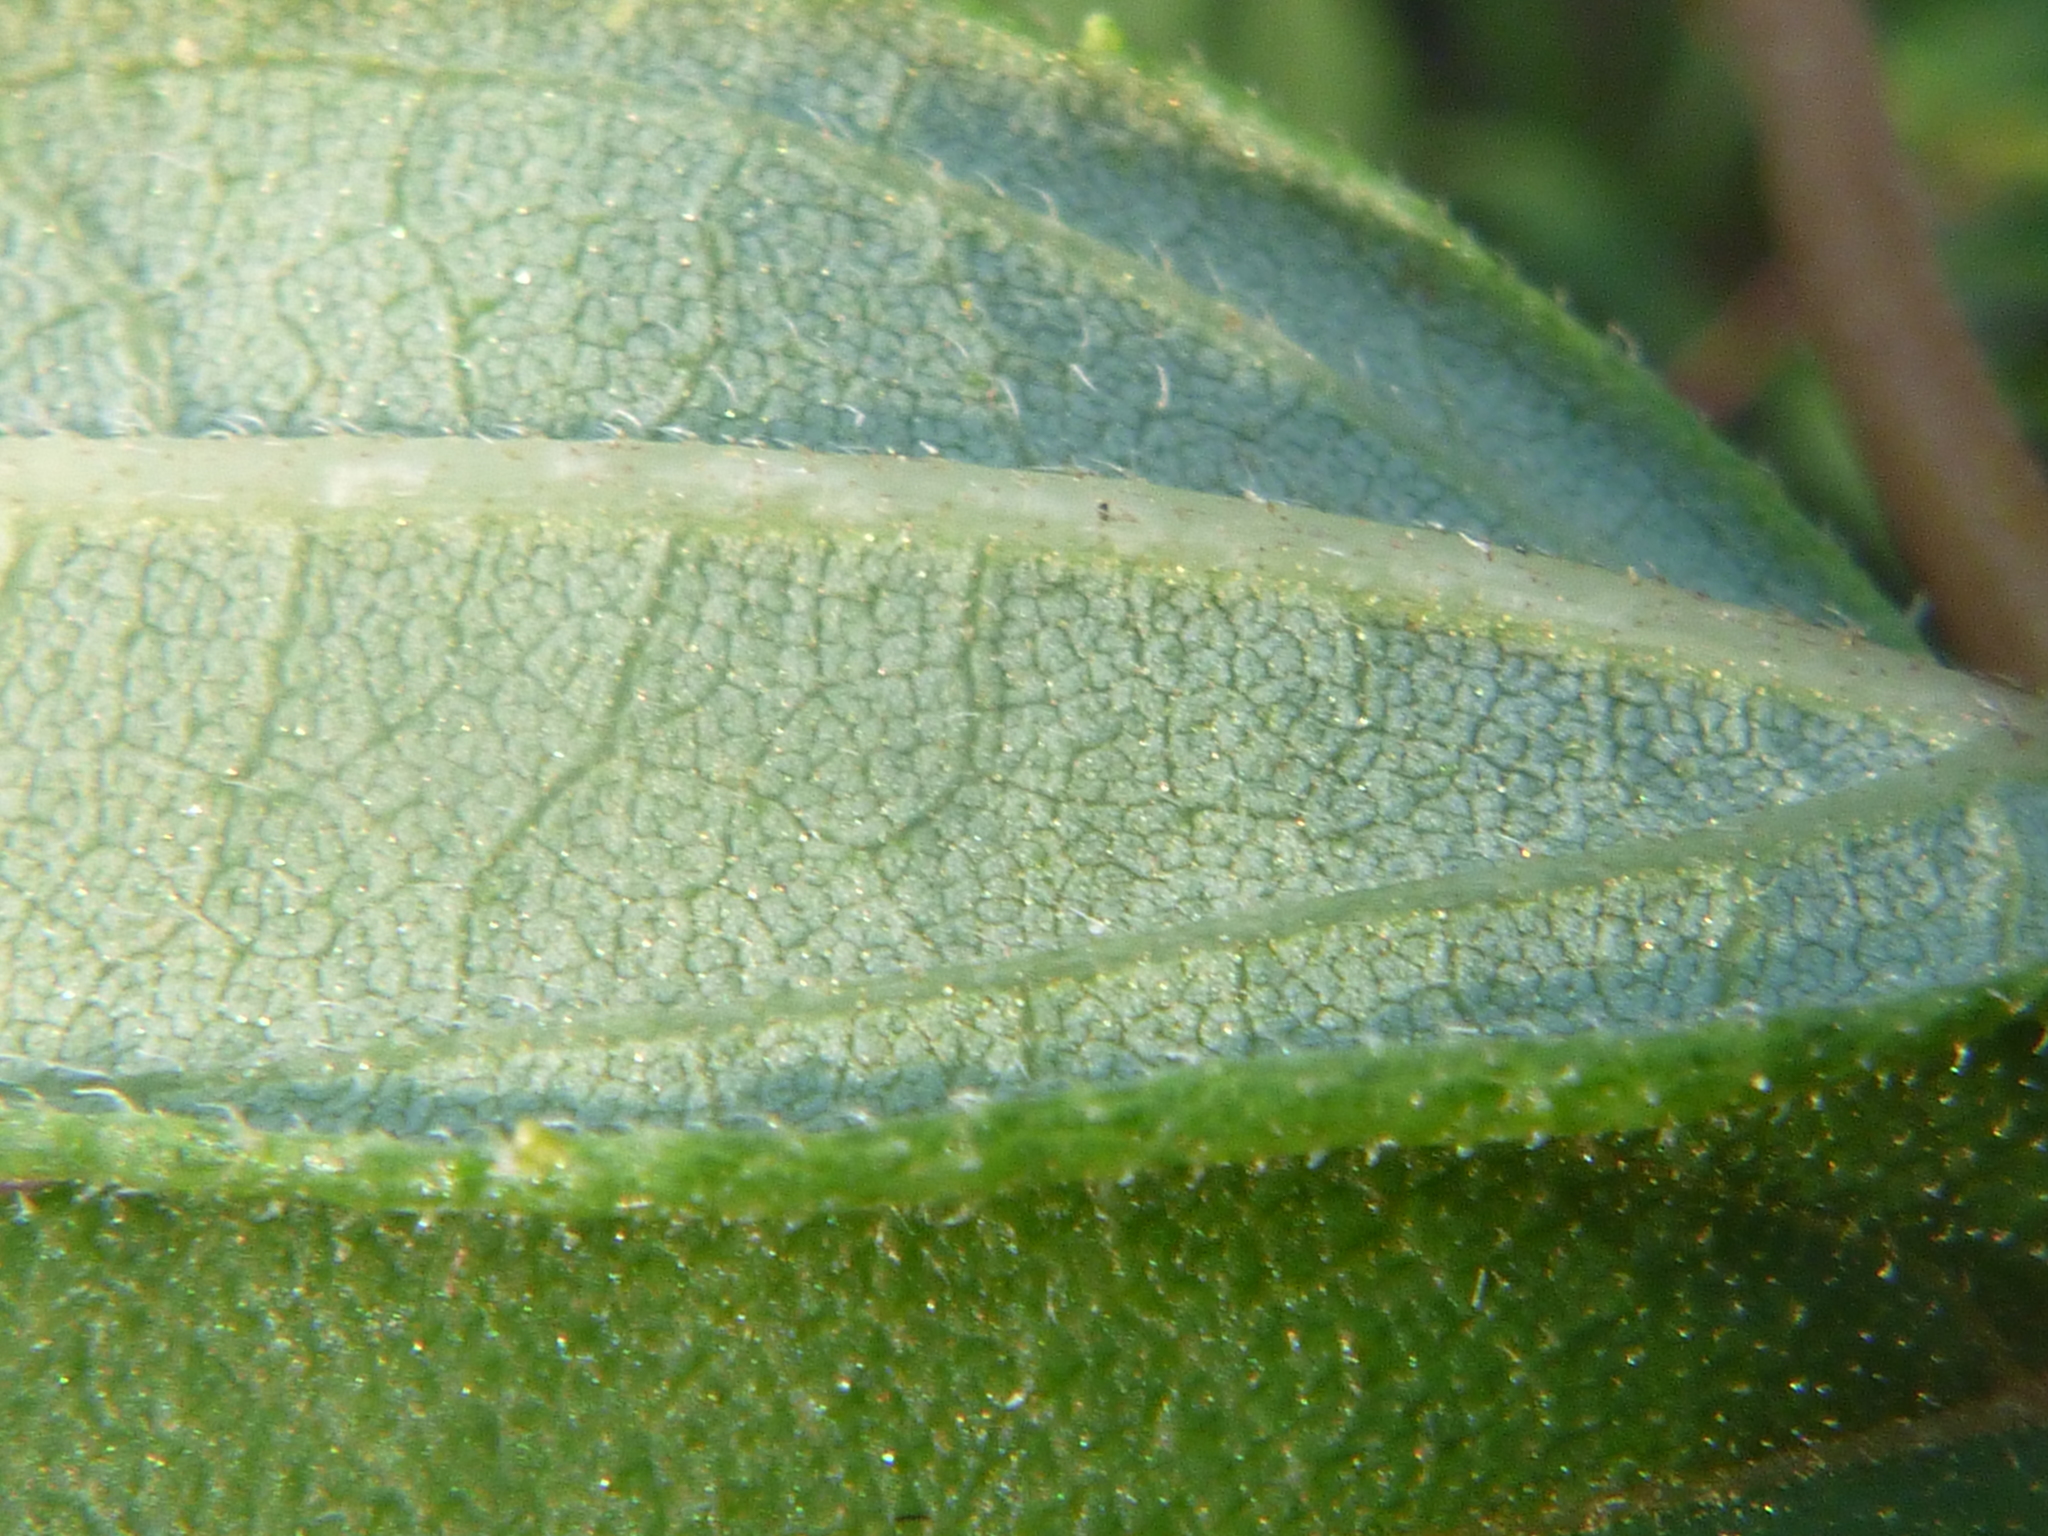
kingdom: Plantae
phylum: Tracheophyta
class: Magnoliopsida
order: Asterales
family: Asteraceae
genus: Helianthus
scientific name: Helianthus hirsutus
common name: Hairy sunflower
